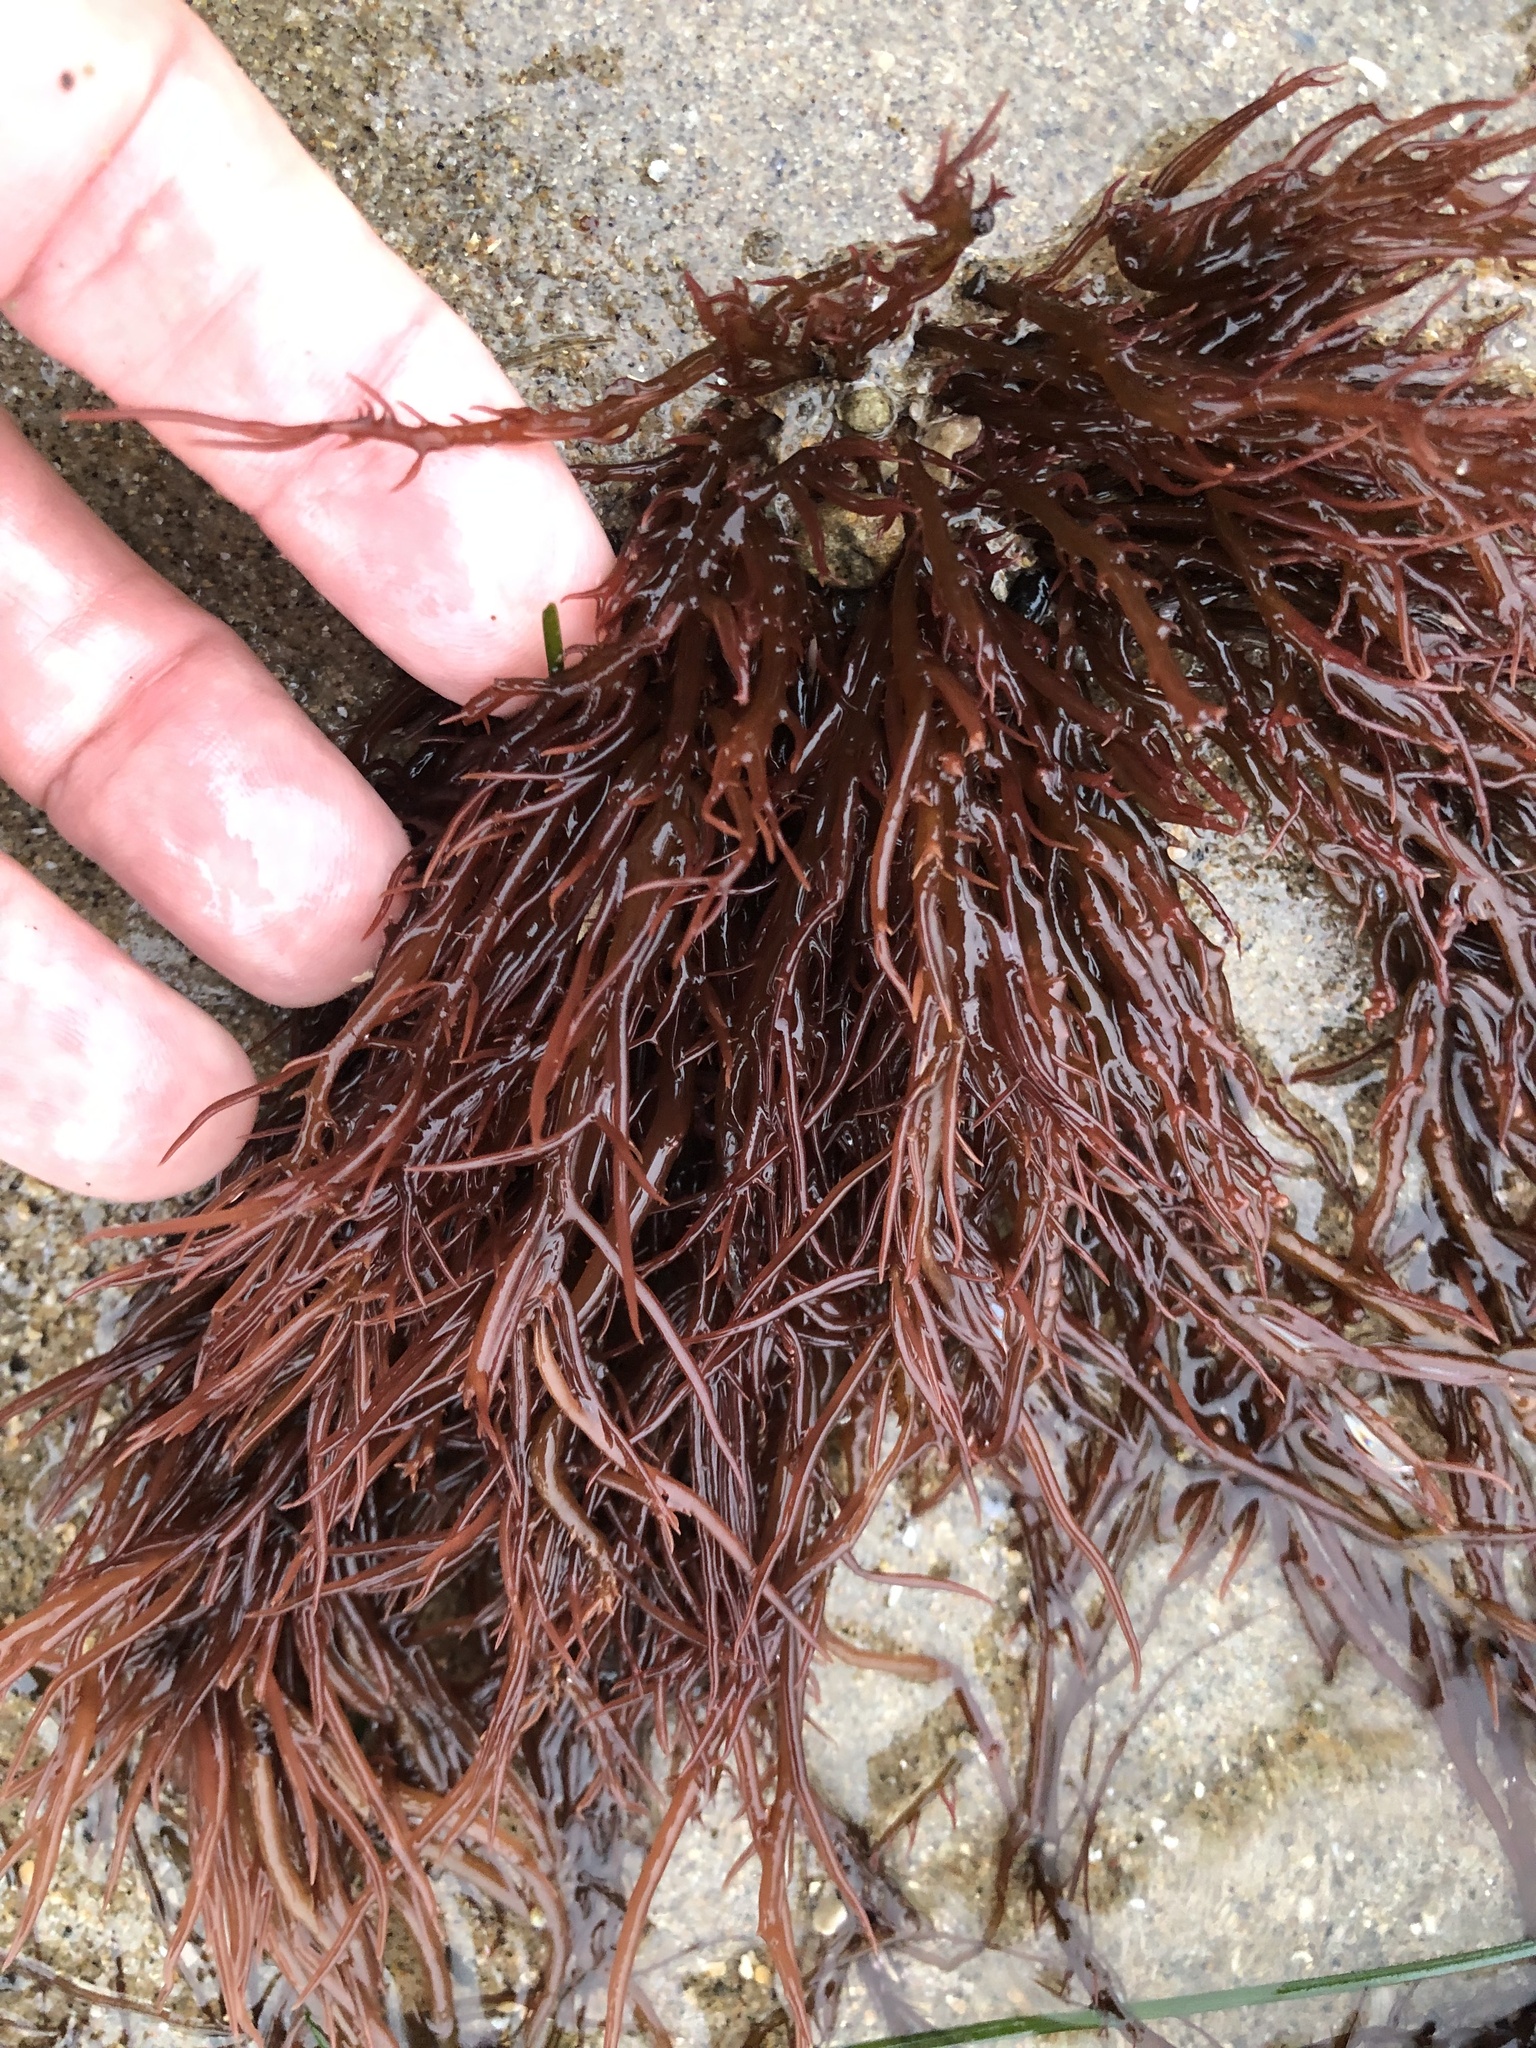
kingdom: Plantae
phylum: Rhodophyta
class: Florideophyceae
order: Gigartinales
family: Solieriaceae
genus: Sarcodiotheca
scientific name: Sarcodiotheca gaudichaudii
